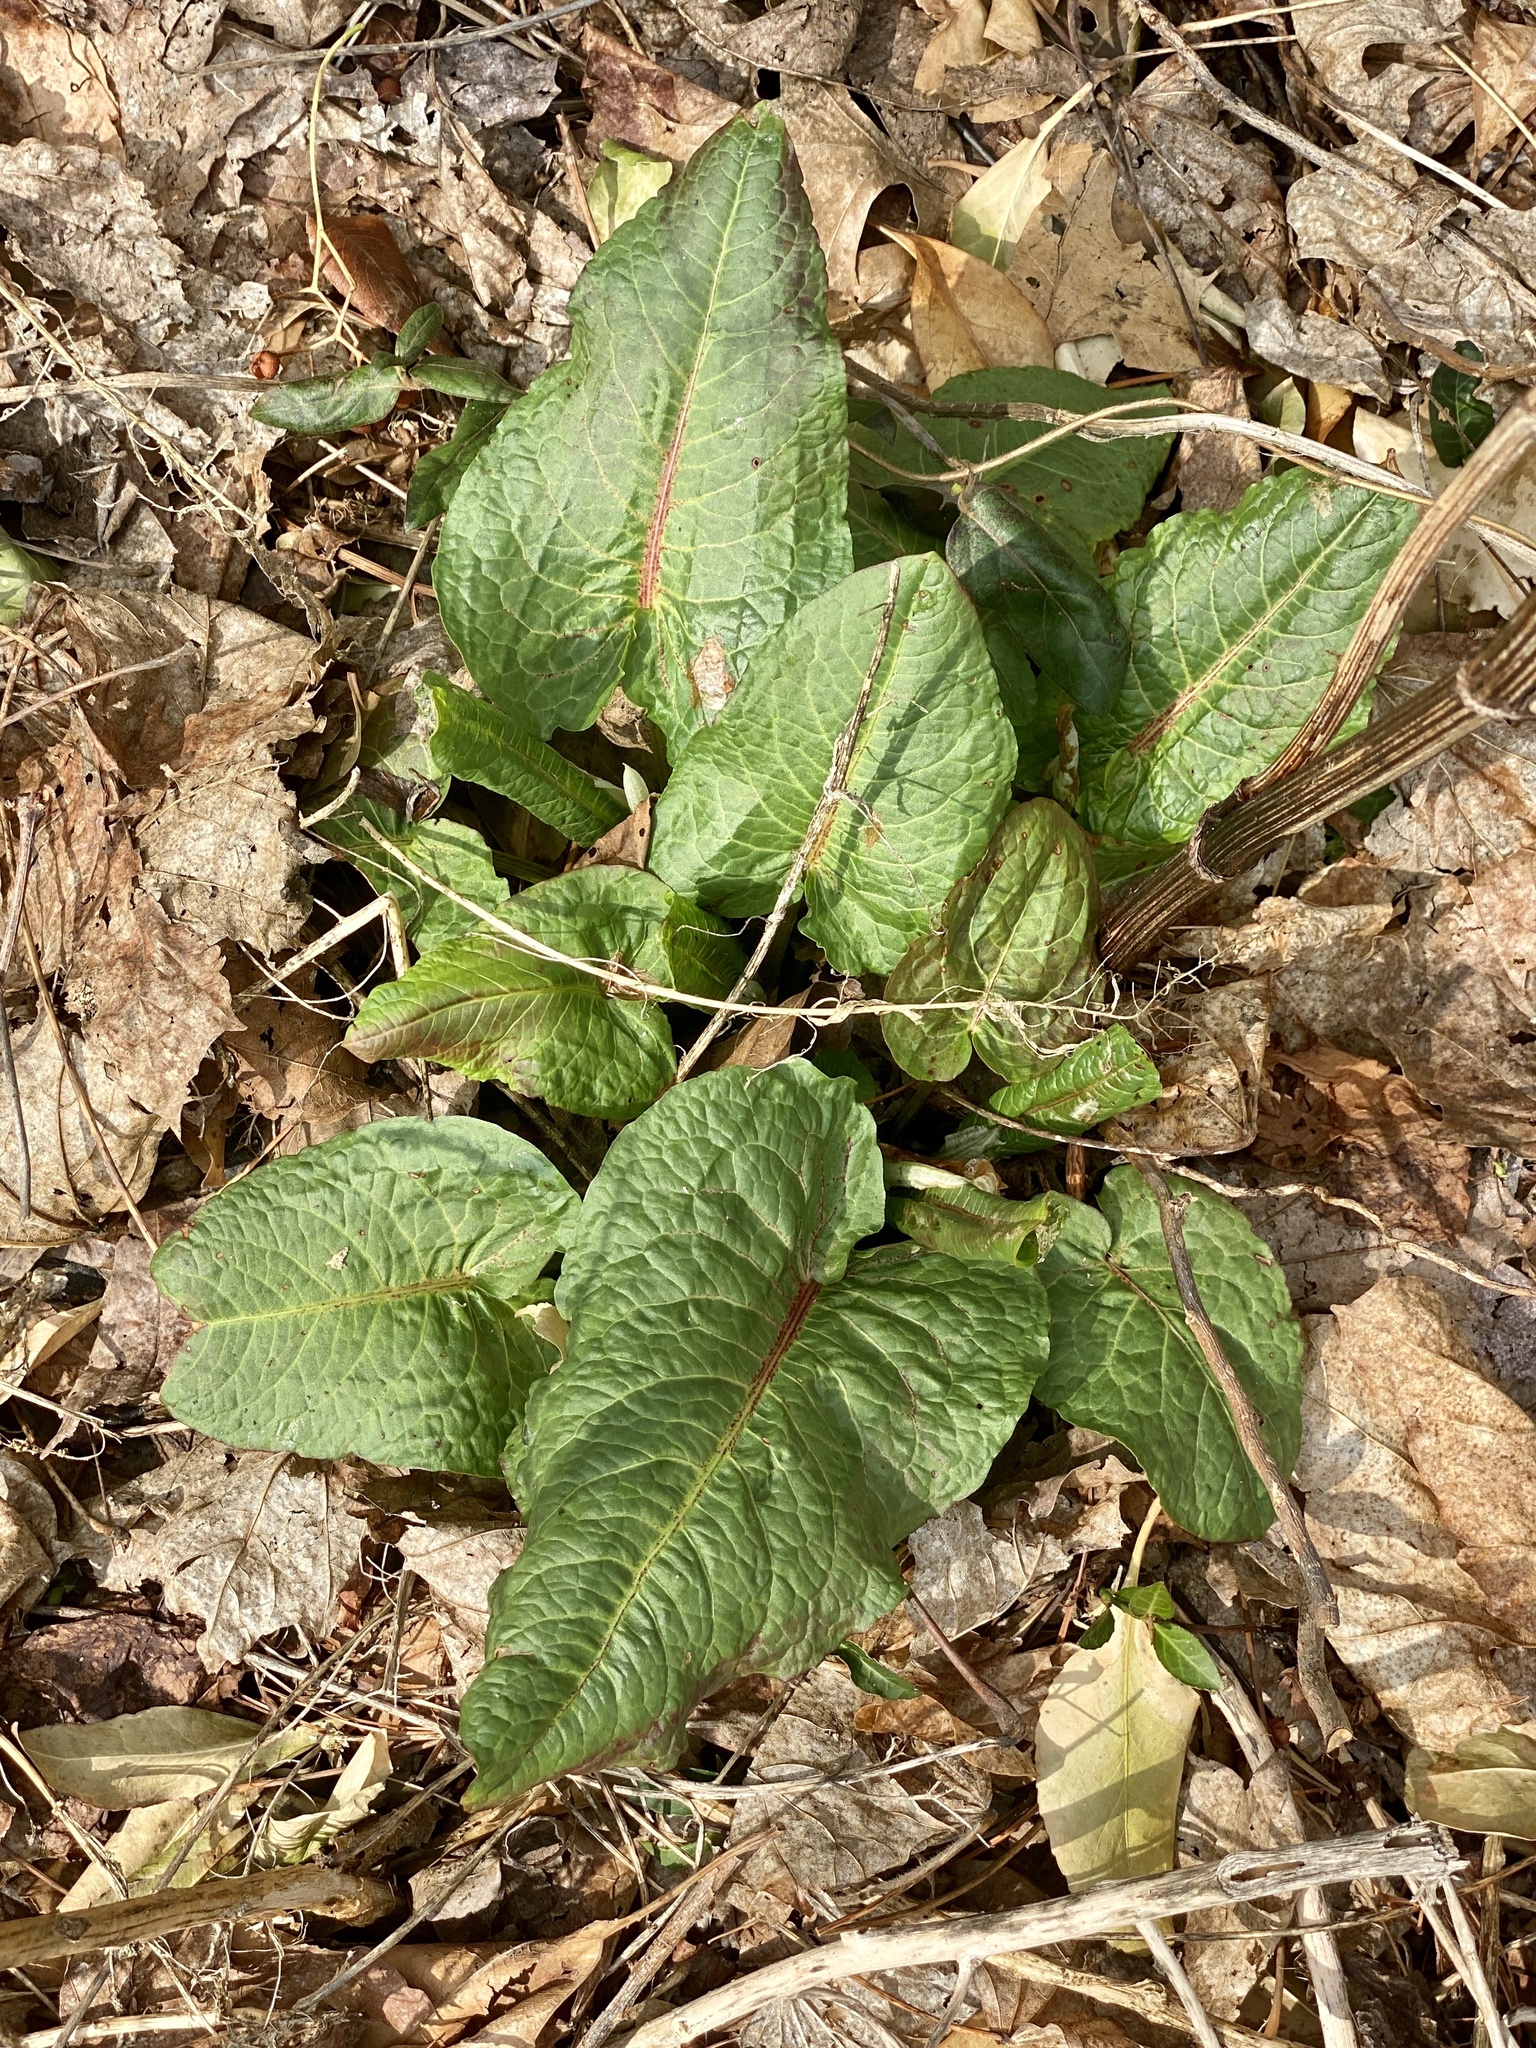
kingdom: Plantae
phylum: Tracheophyta
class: Magnoliopsida
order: Caryophyllales
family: Polygonaceae
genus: Rumex
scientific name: Rumex obtusifolius
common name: Bitter dock
